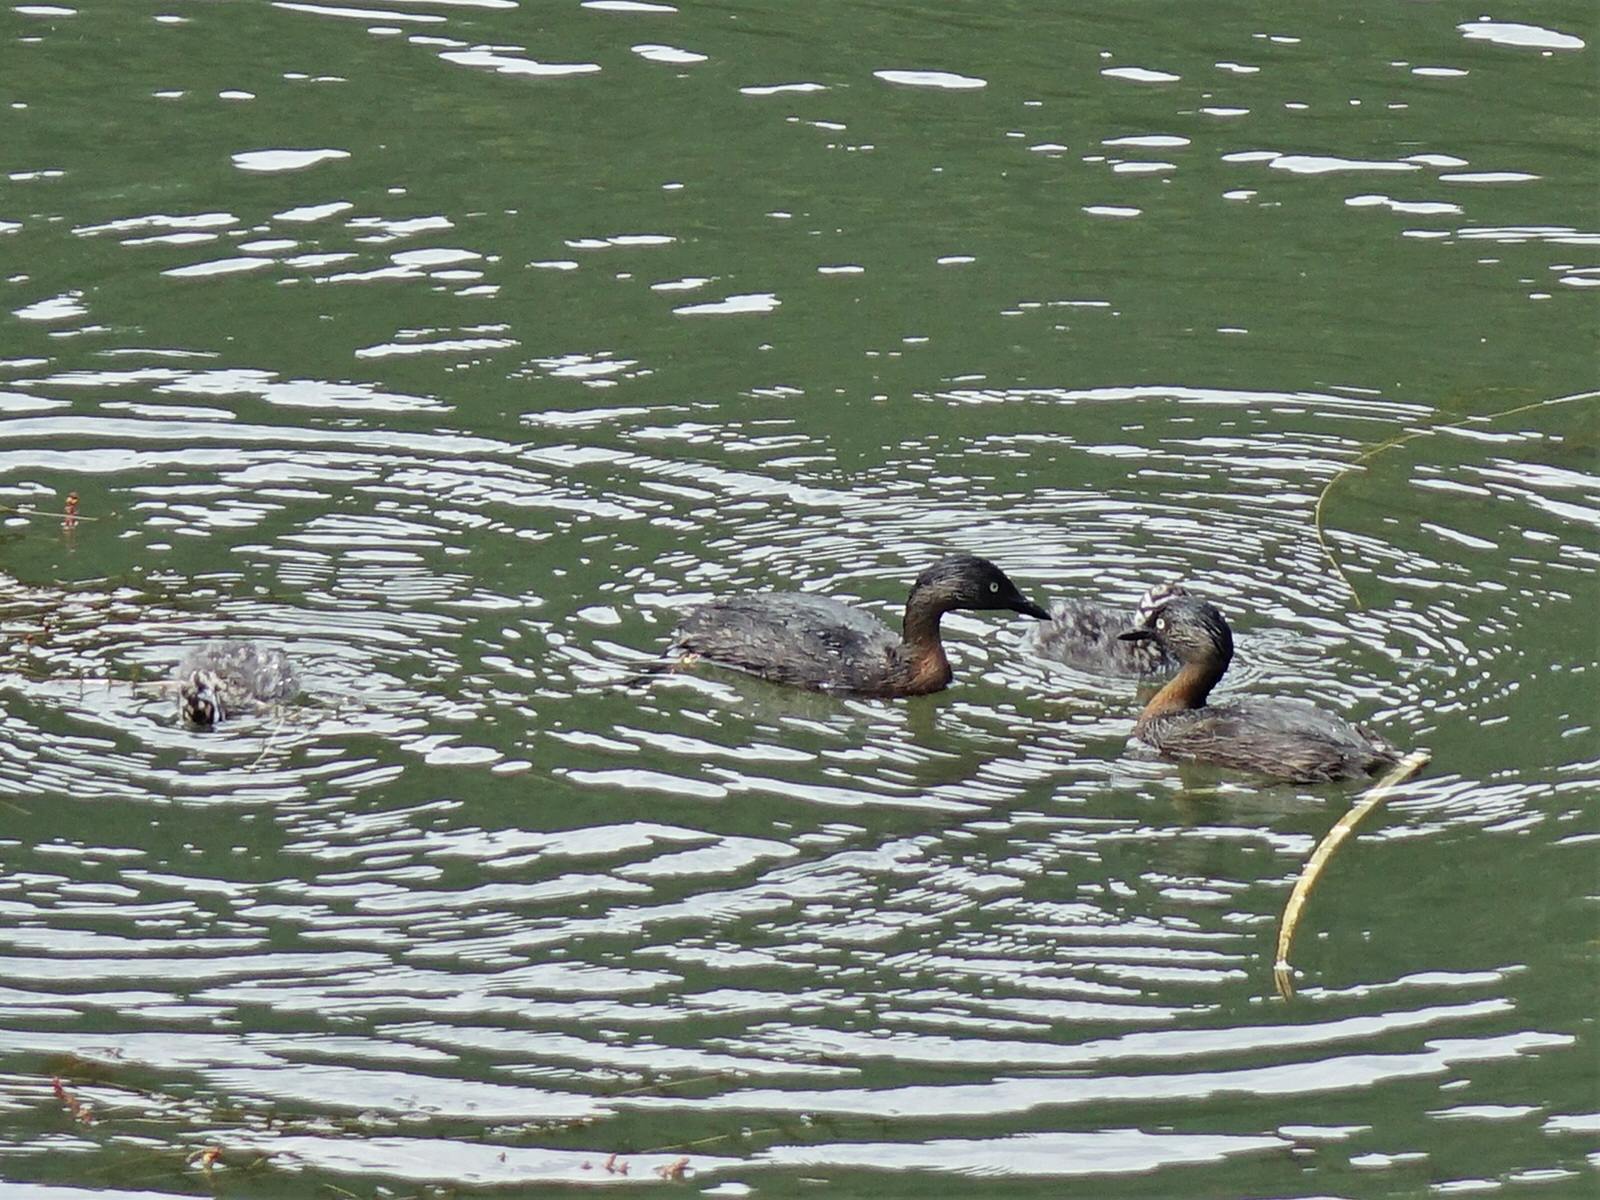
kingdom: Animalia
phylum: Chordata
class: Aves
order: Podicipediformes
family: Podicipedidae
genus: Poliocephalus
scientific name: Poliocephalus rufopectus
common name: New zealand grebe
